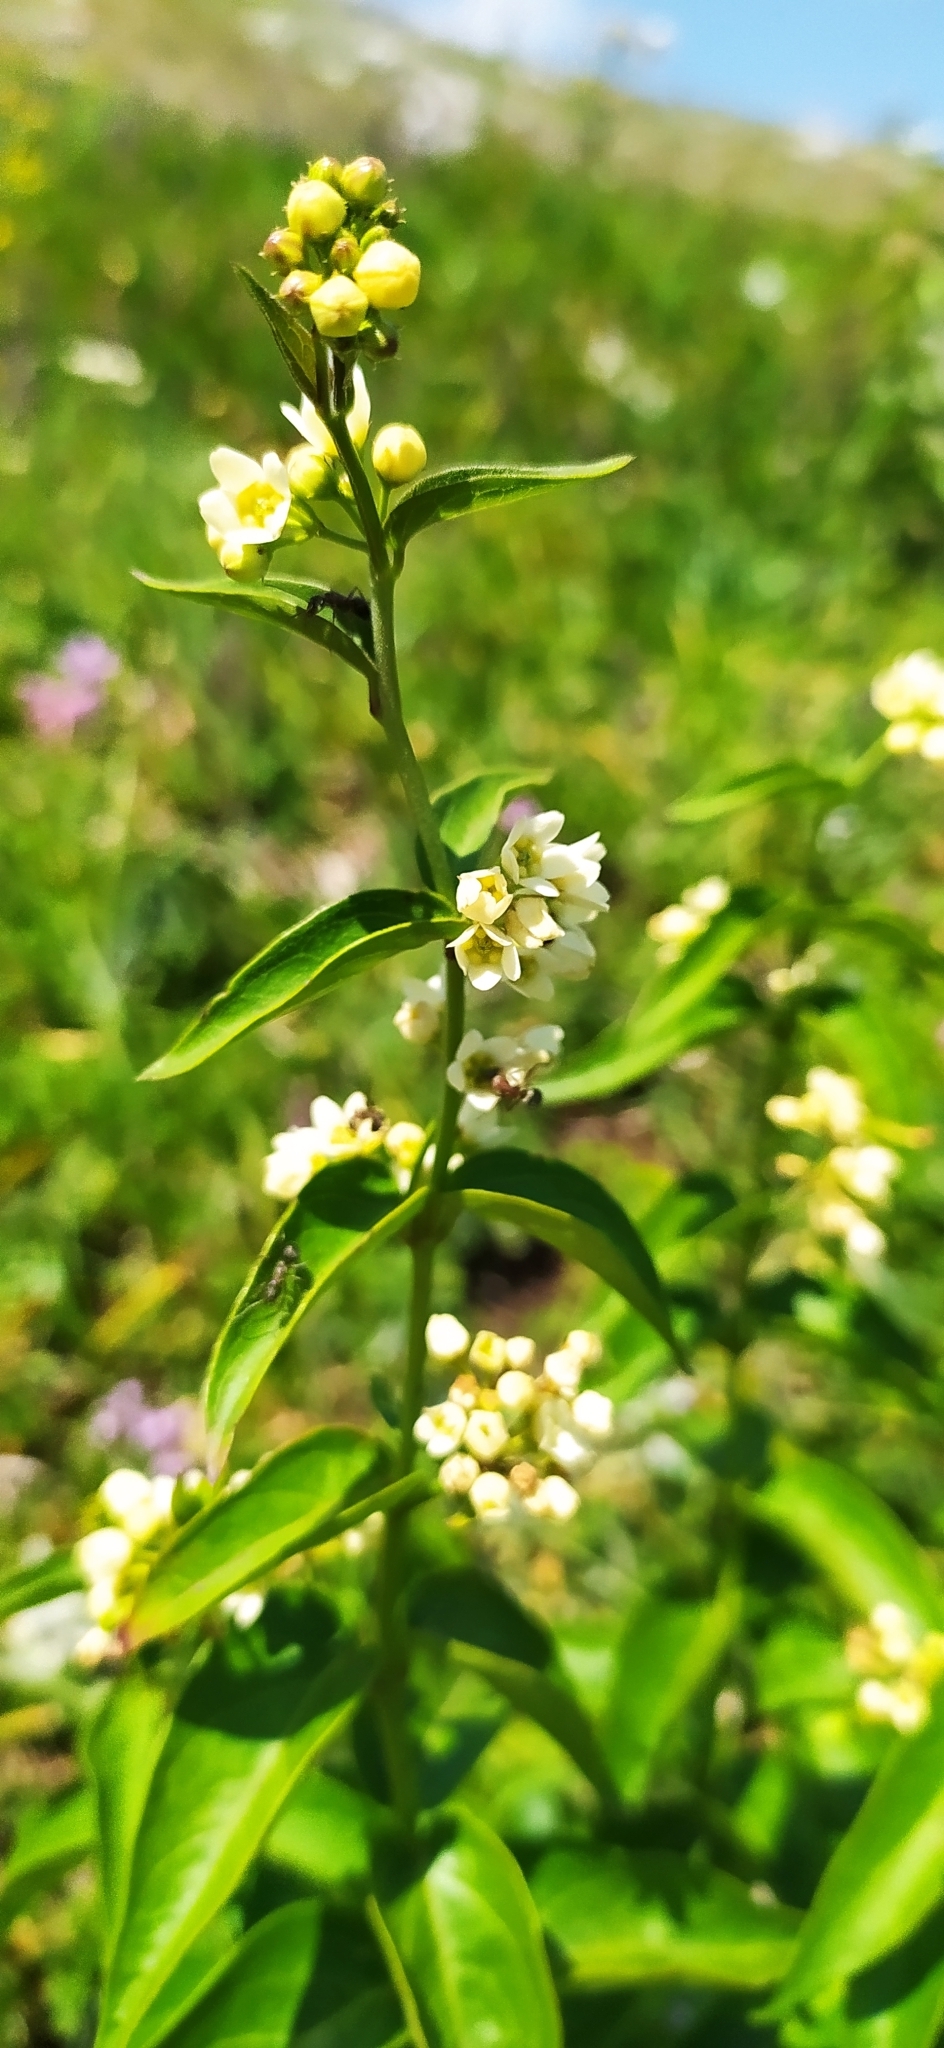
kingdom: Plantae
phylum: Tracheophyta
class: Magnoliopsida
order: Gentianales
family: Apocynaceae
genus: Vincetoxicum
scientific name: Vincetoxicum hirundinaria
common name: White swallowwort
